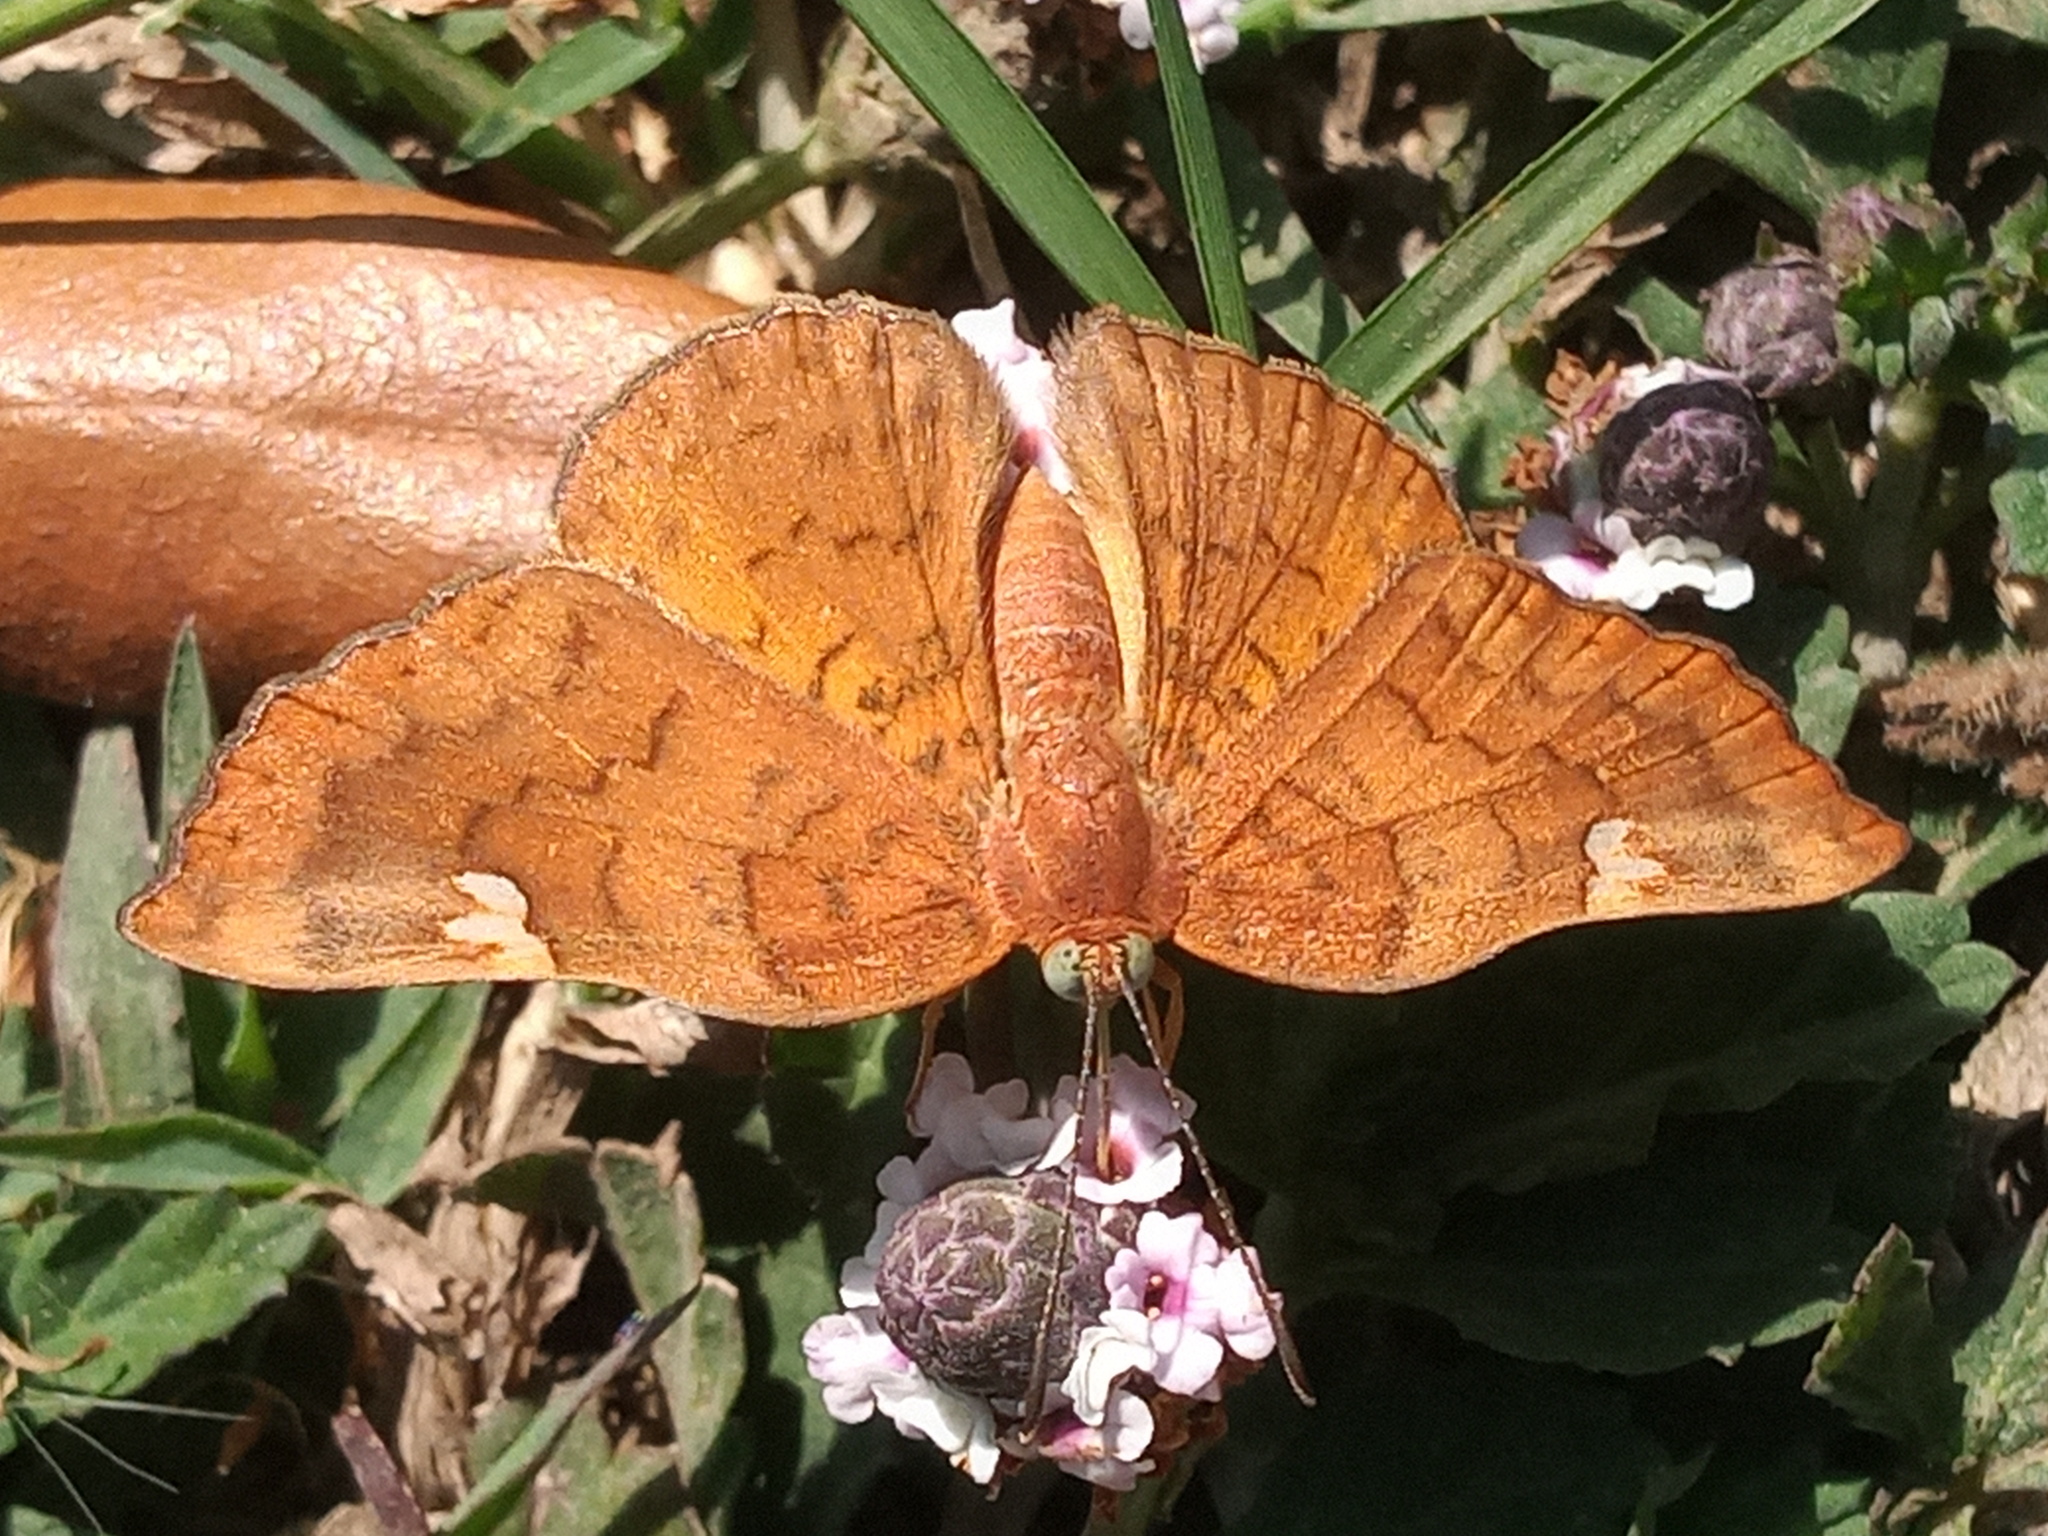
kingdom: Animalia
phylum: Arthropoda
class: Insecta
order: Lepidoptera
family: Riodinidae
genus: Curvie
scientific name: Curvie emesia
